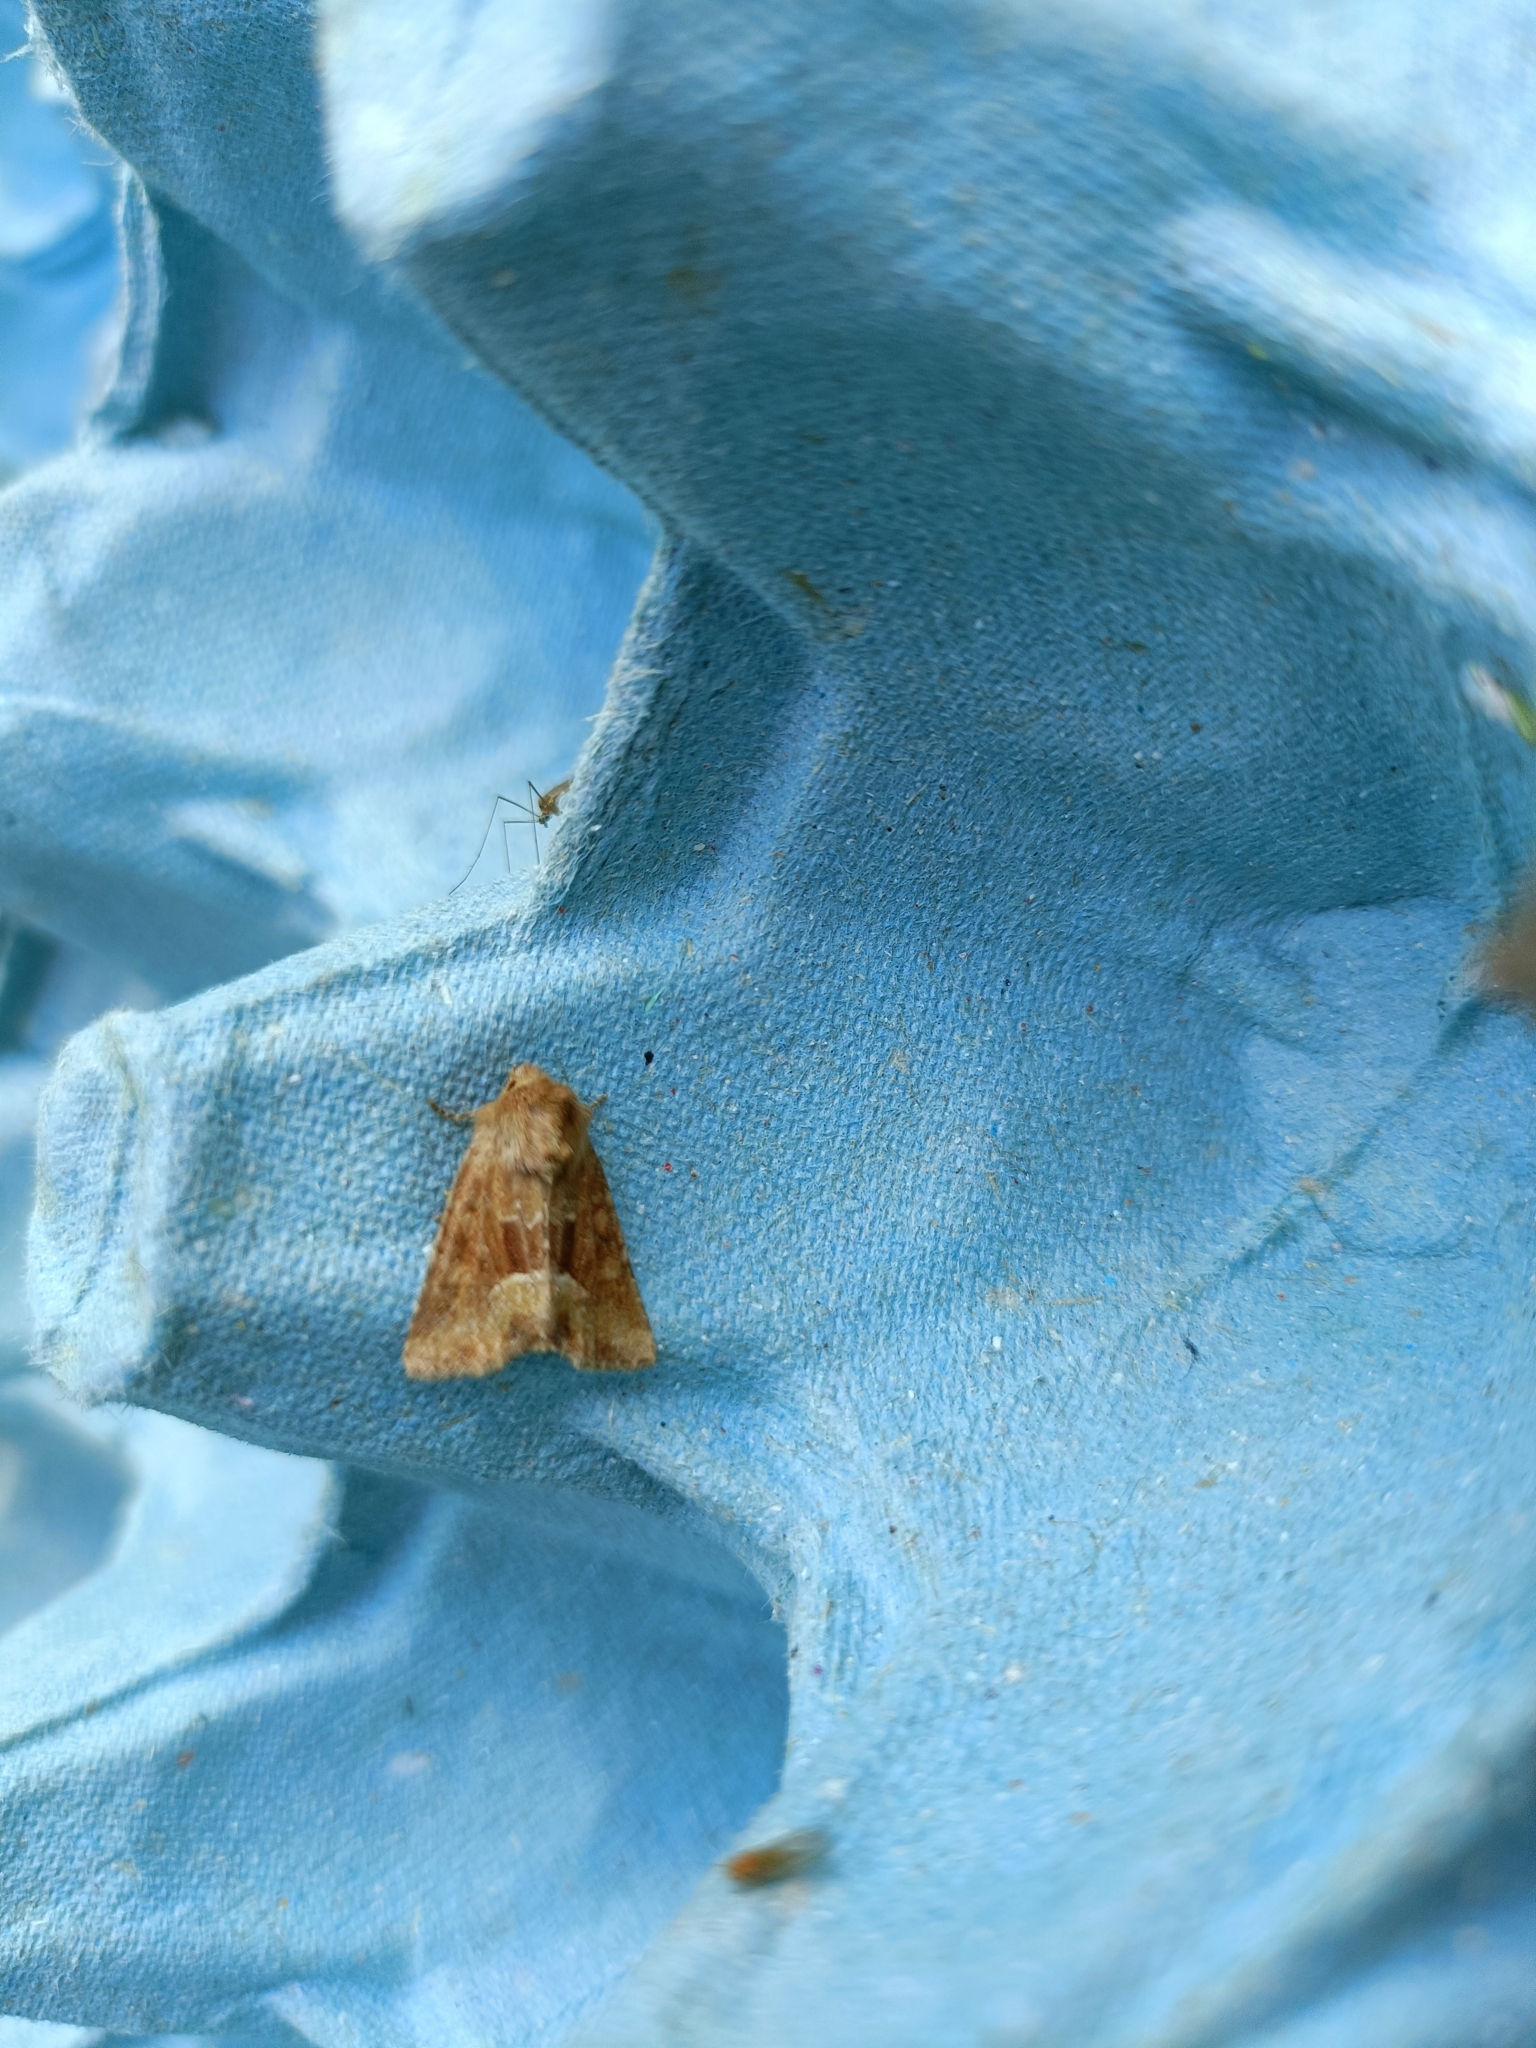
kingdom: Animalia
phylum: Arthropoda
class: Insecta
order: Lepidoptera
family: Noctuidae
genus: Oligia
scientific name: Oligia fasciuncula
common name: Middle-barred minor
